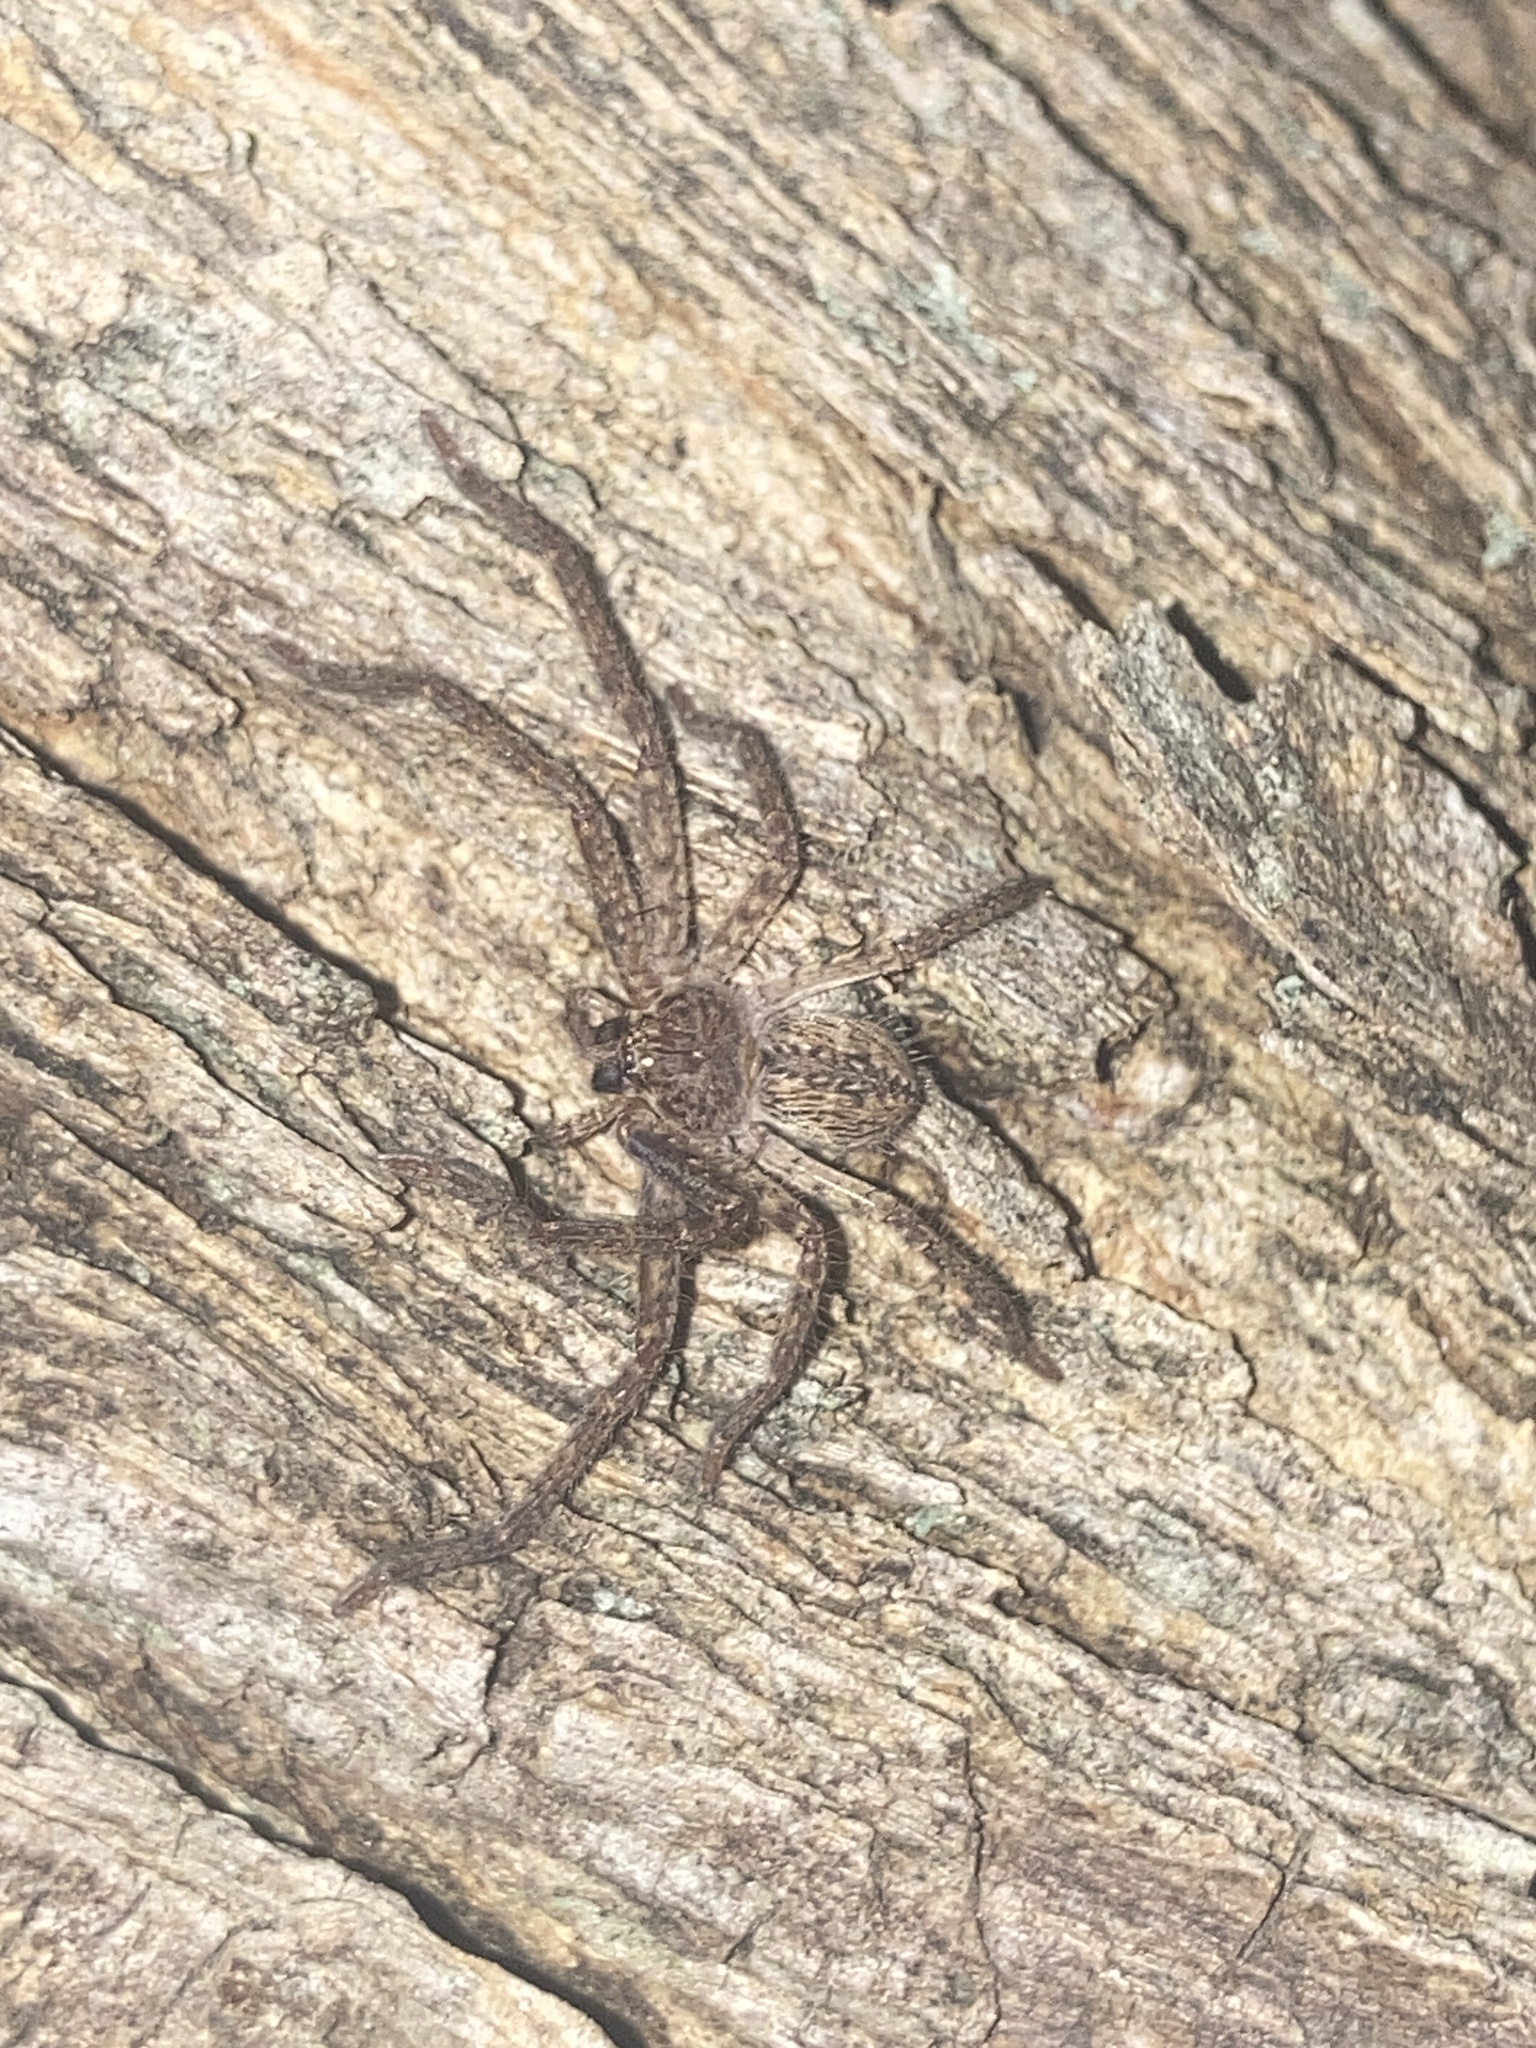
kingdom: Animalia
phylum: Arthropoda
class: Arachnida
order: Araneae
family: Sparassidae
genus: Isopeda
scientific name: Isopeda villosa
